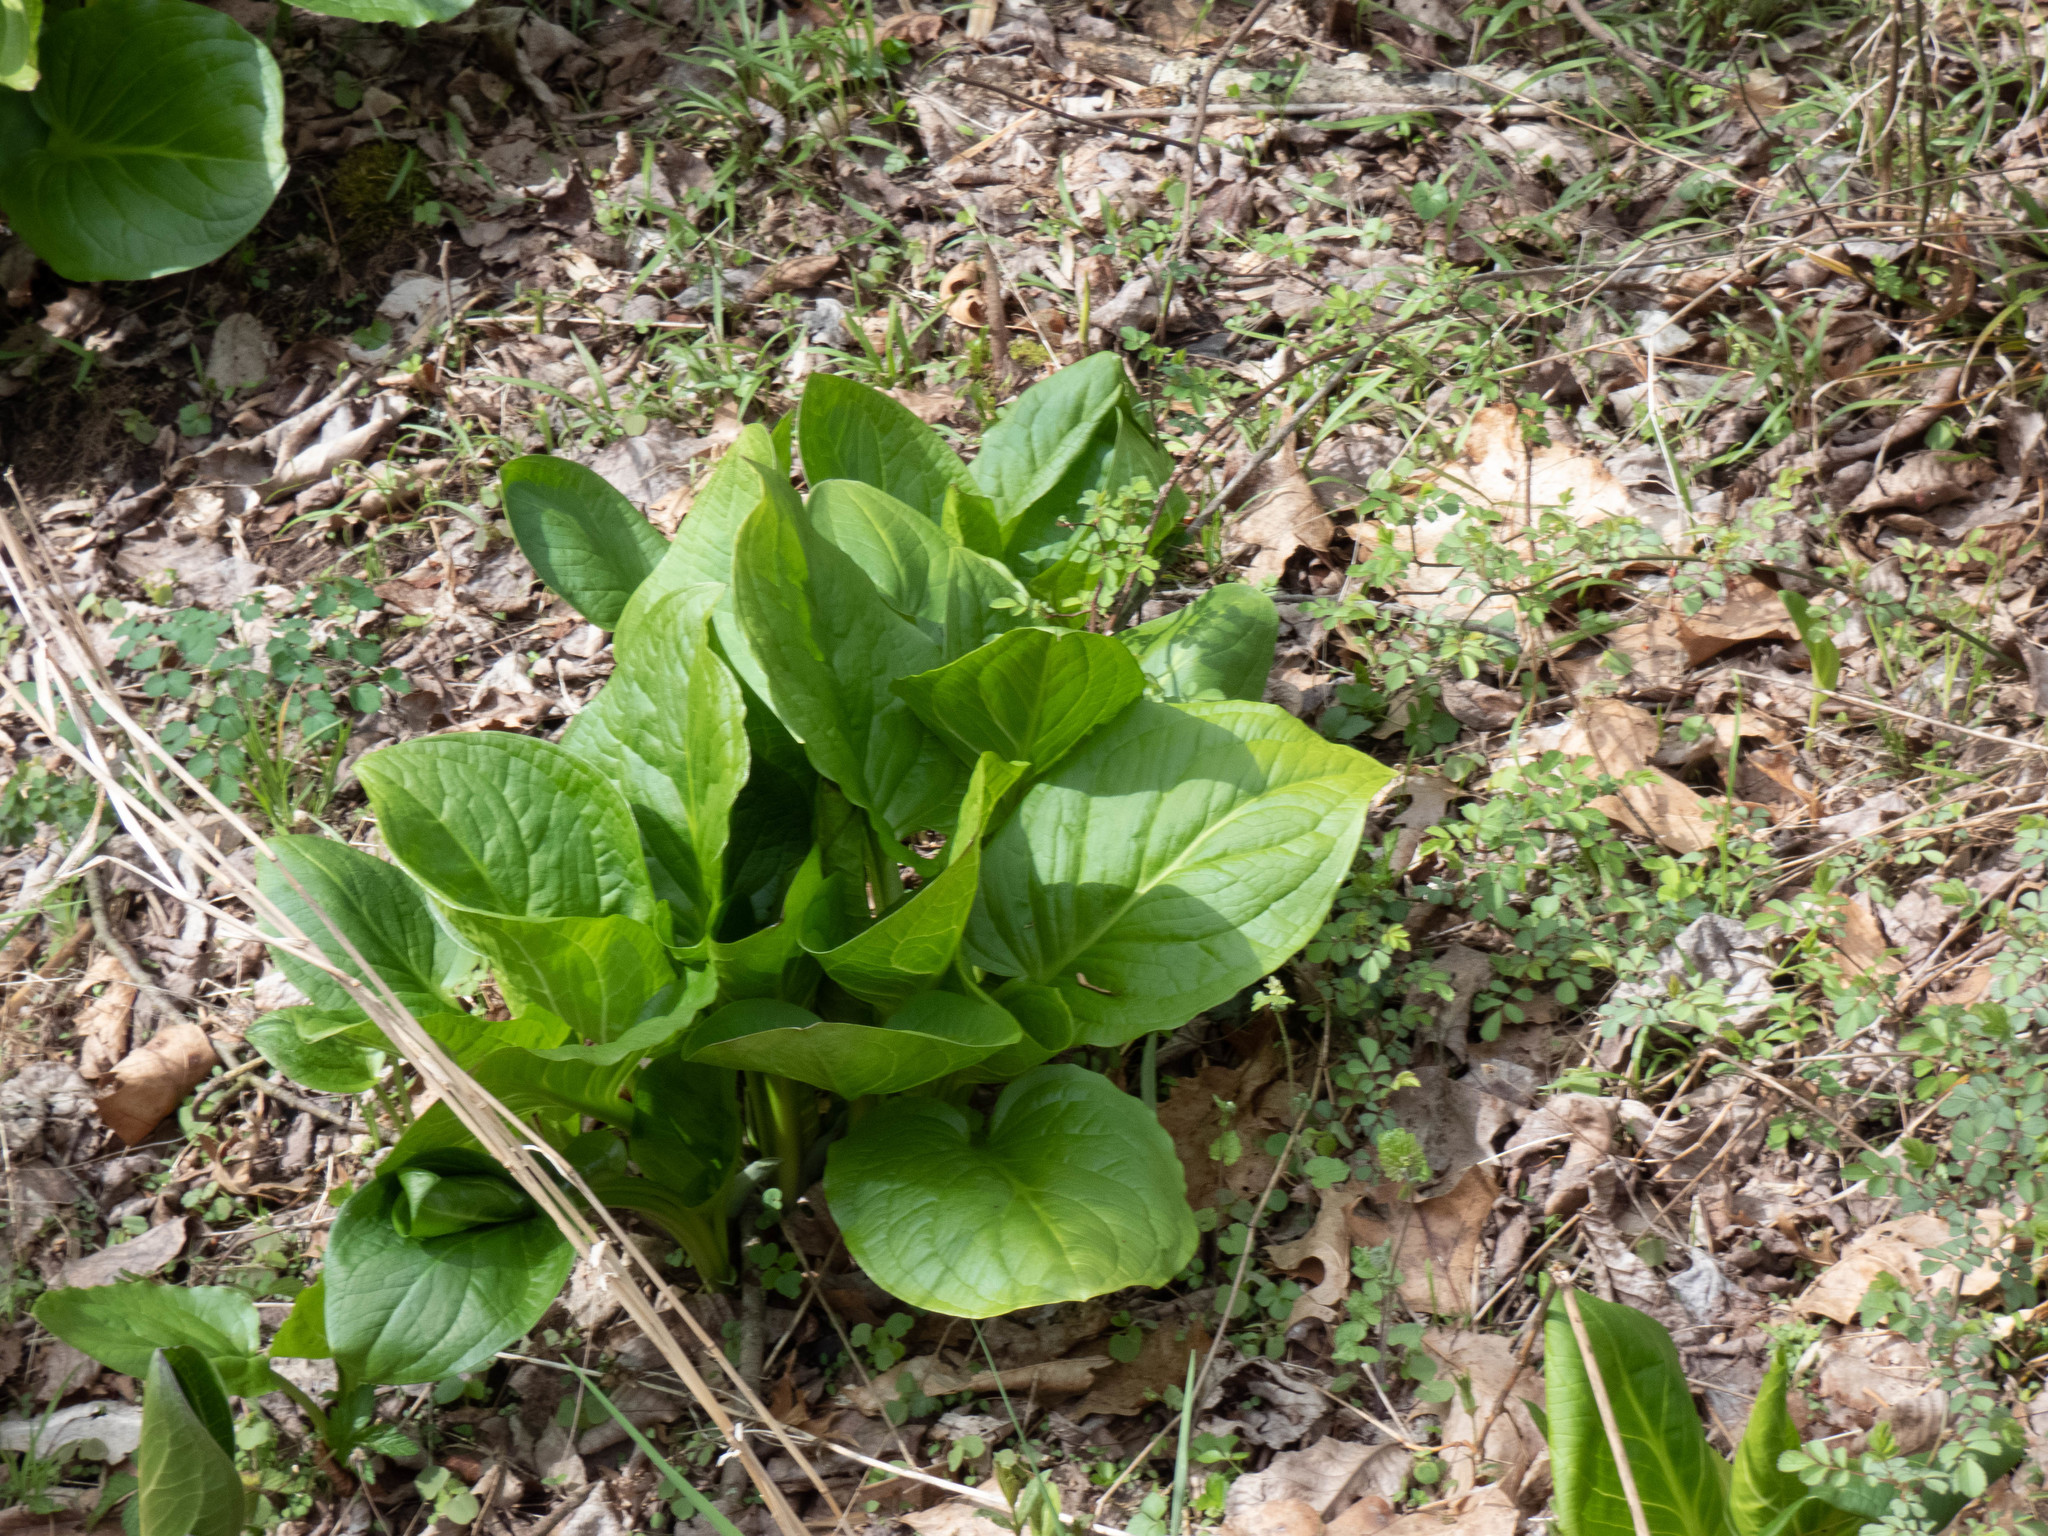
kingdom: Plantae
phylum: Tracheophyta
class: Liliopsida
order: Alismatales
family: Araceae
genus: Symplocarpus
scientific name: Symplocarpus foetidus
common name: Eastern skunk cabbage
